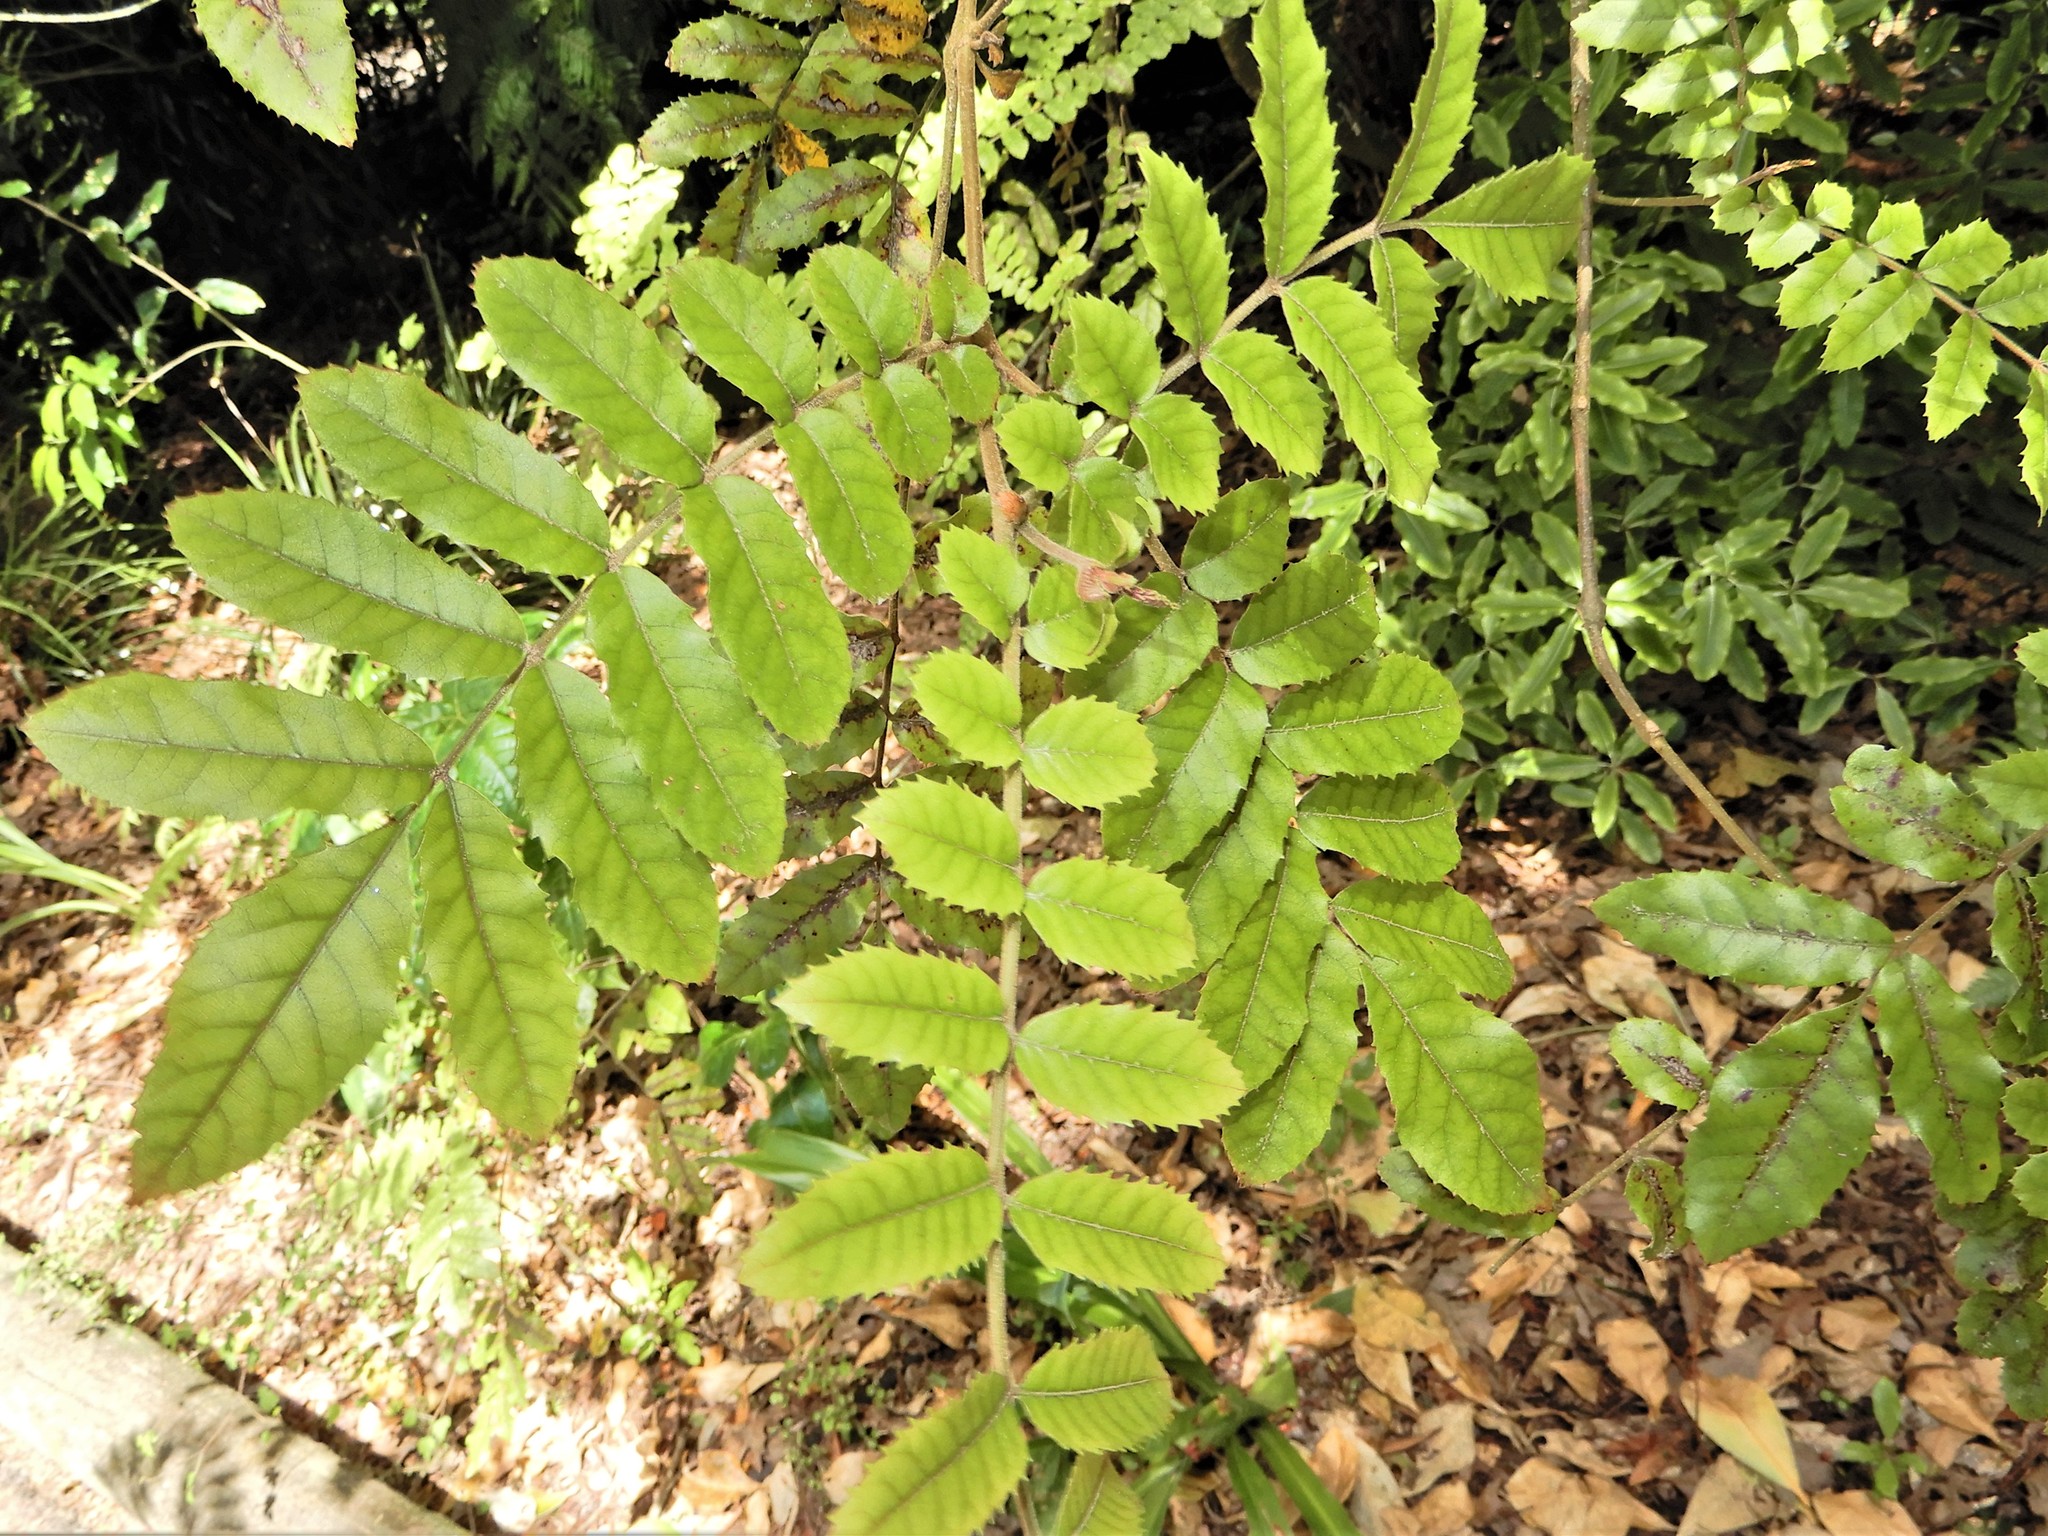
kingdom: Plantae
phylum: Tracheophyta
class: Magnoliopsida
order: Oxalidales
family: Cunoniaceae
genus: Ackama
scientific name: Ackama rosifolia
